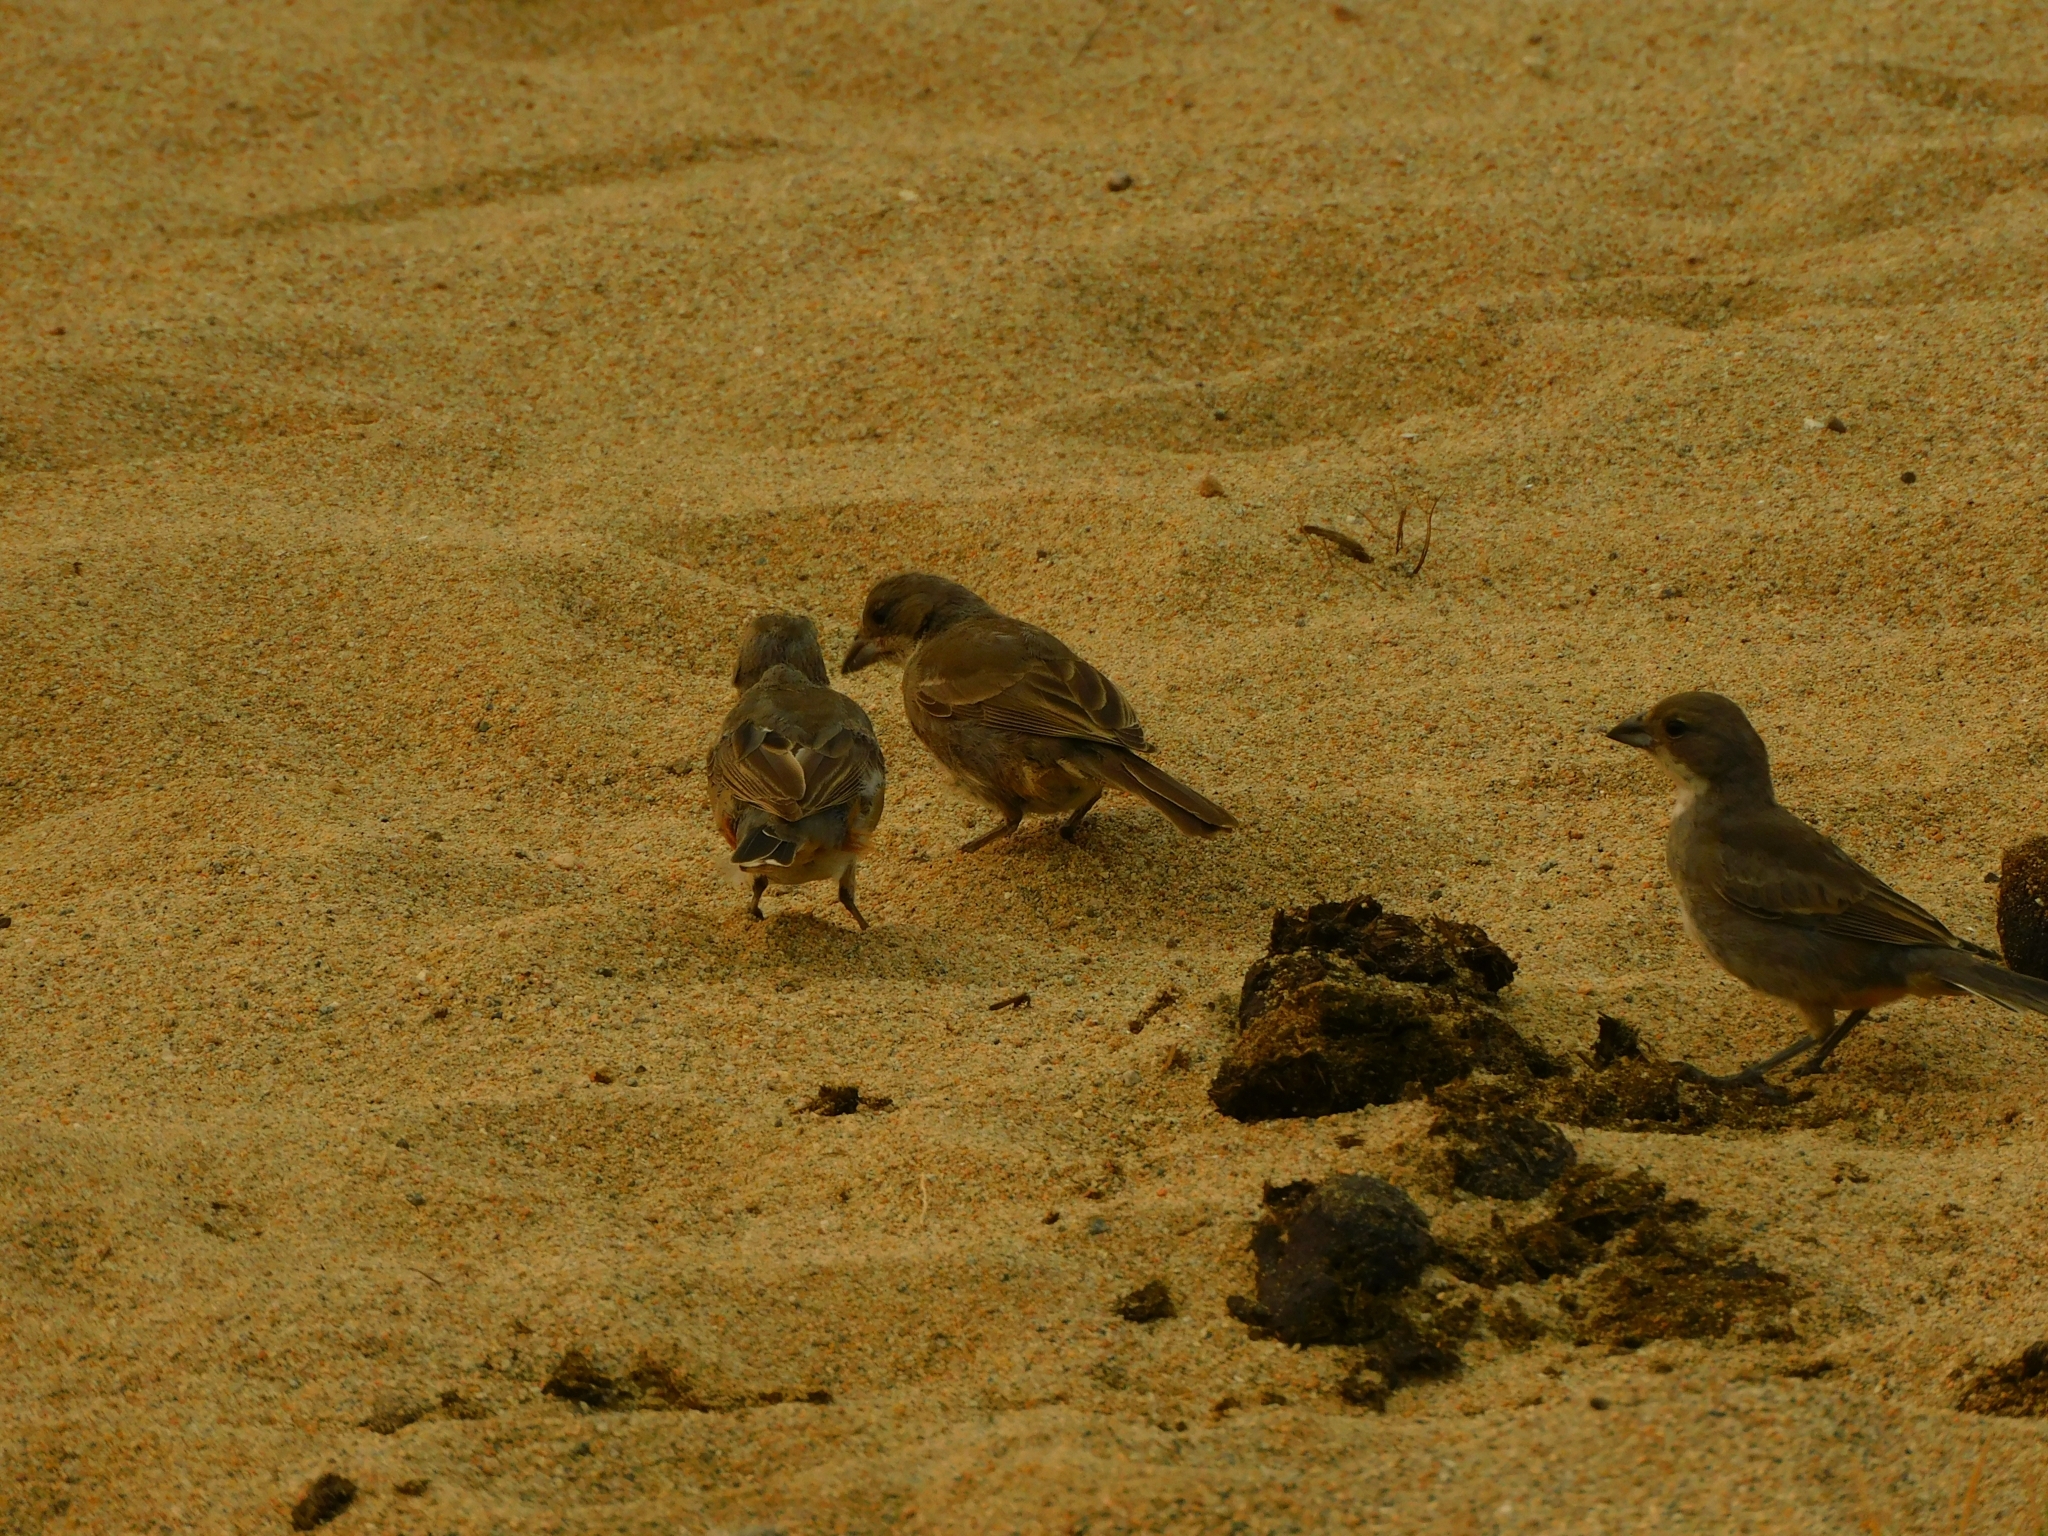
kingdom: Animalia
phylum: Chordata
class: Aves
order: Passeriformes
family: Thraupidae
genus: Diuca
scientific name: Diuca diuca
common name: Common diuca finch
